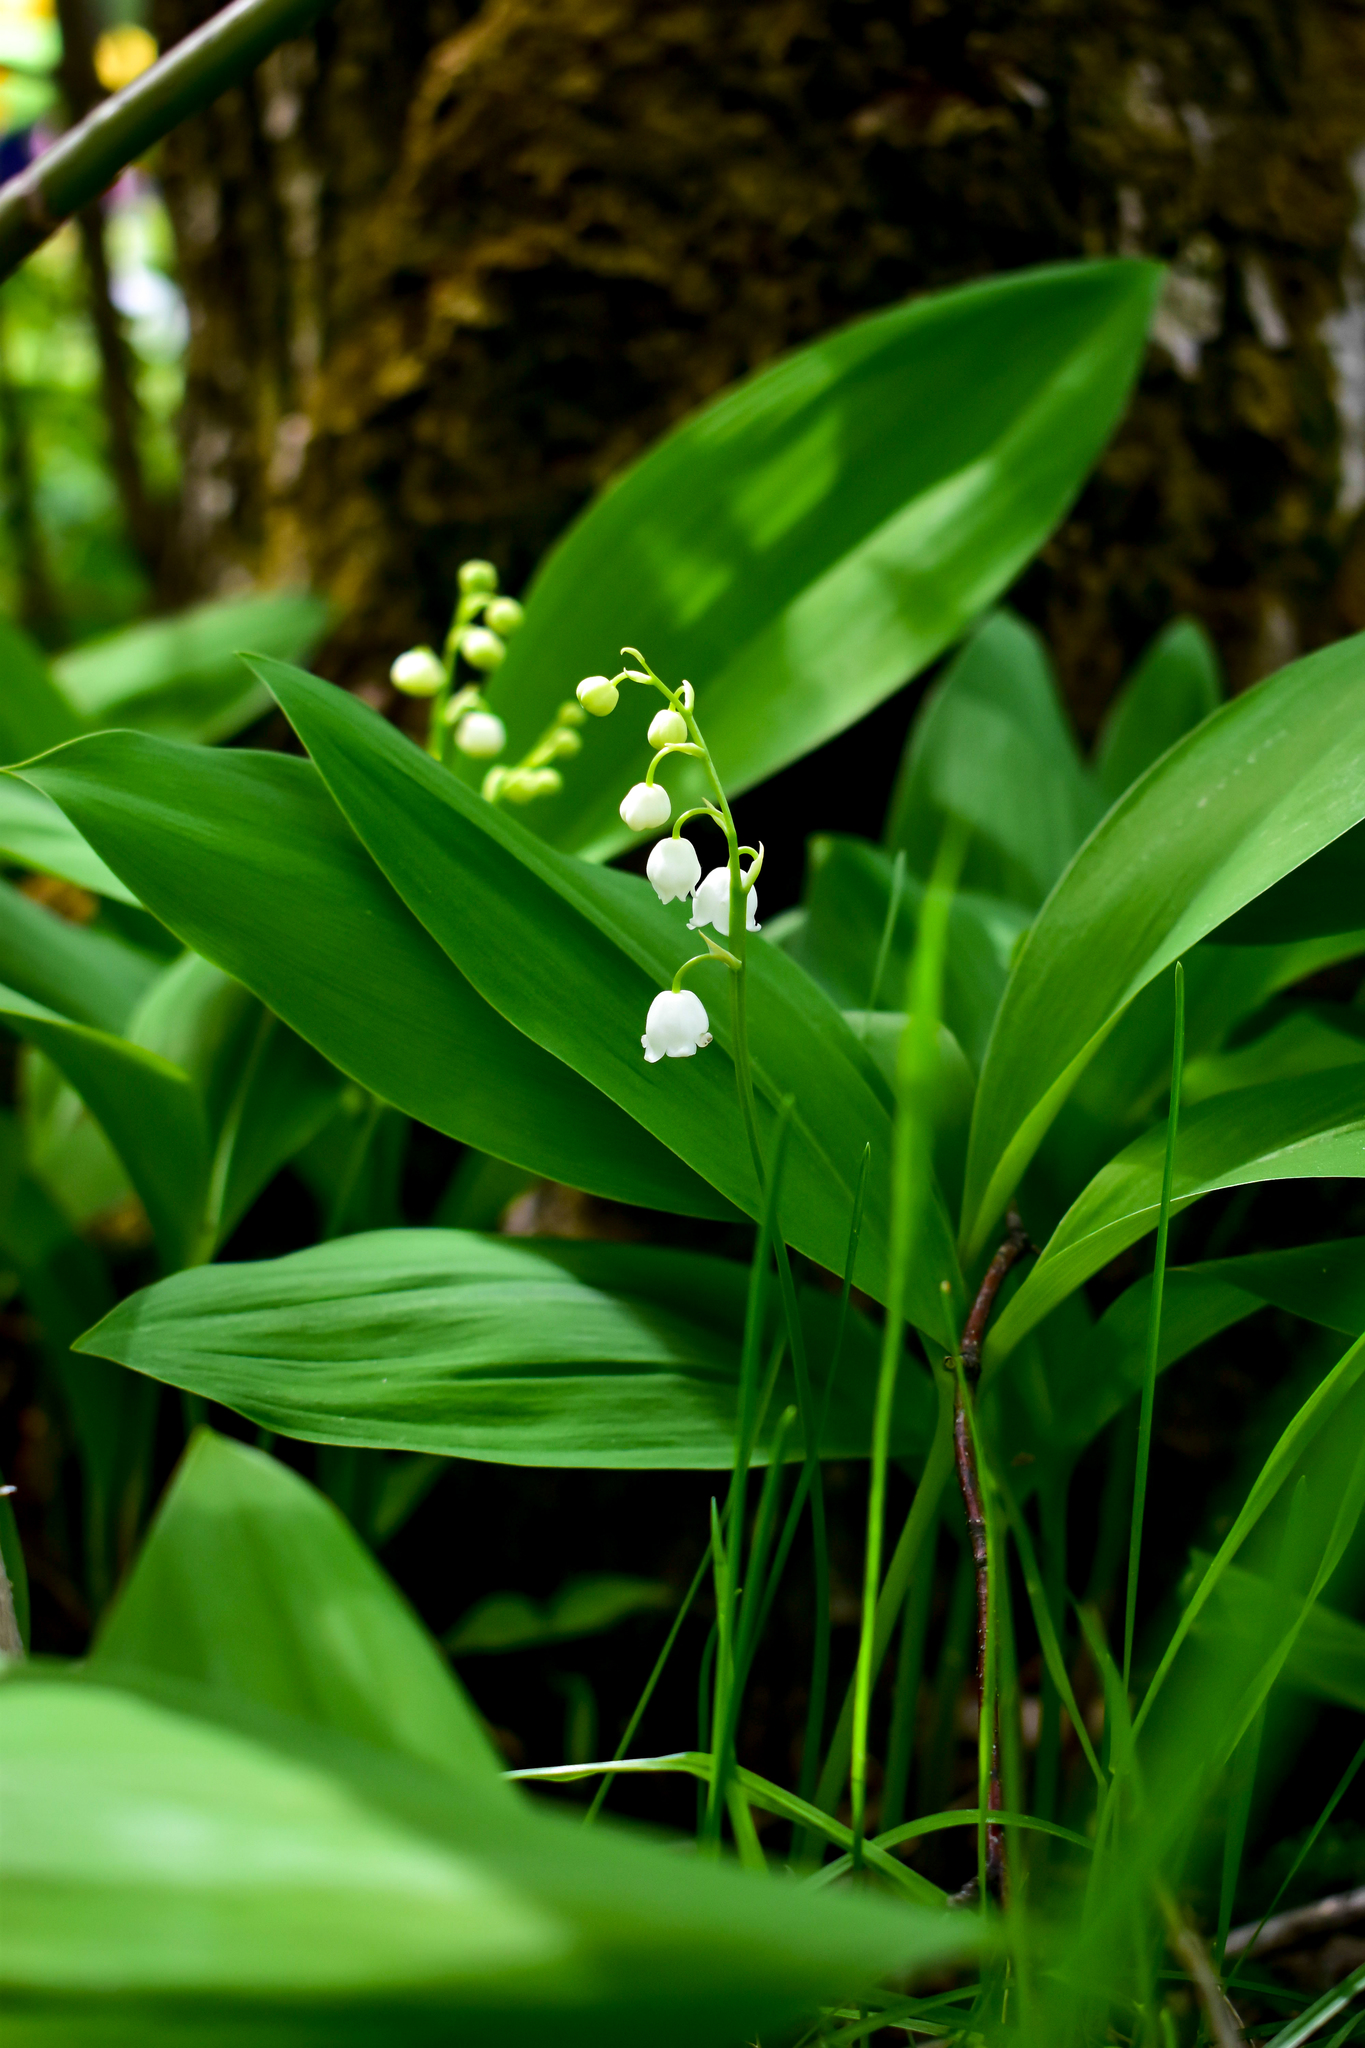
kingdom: Plantae
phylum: Tracheophyta
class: Liliopsida
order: Asparagales
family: Asparagaceae
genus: Convallaria
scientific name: Convallaria majalis
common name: Lily-of-the-valley
